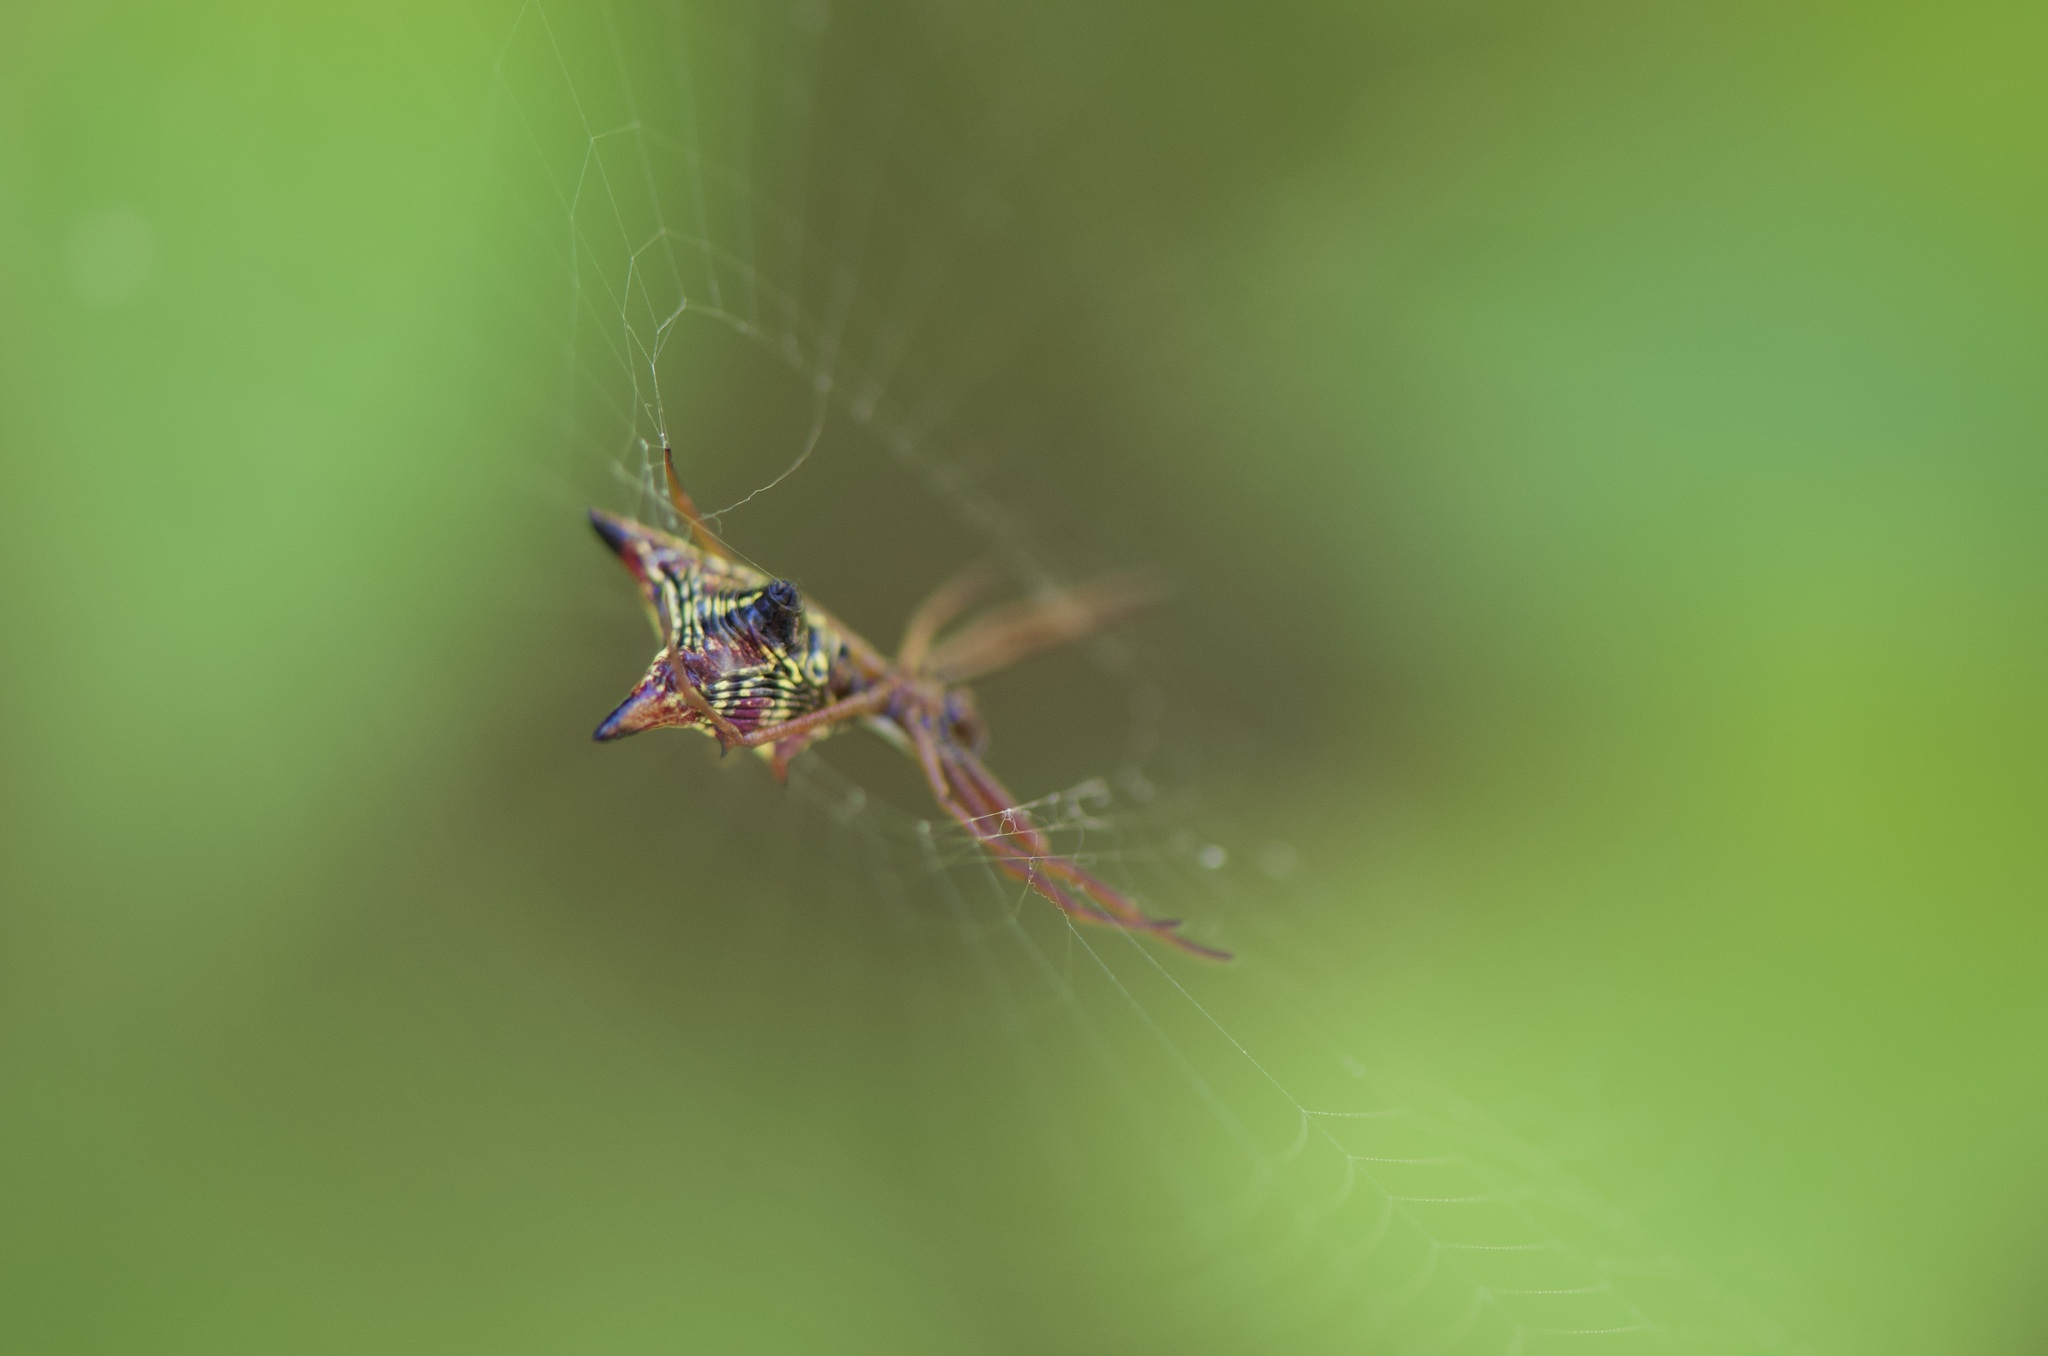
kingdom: Animalia
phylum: Arthropoda
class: Arachnida
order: Araneae
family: Araneidae
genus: Micrathena
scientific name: Micrathena sagittata
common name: Orb weavers
